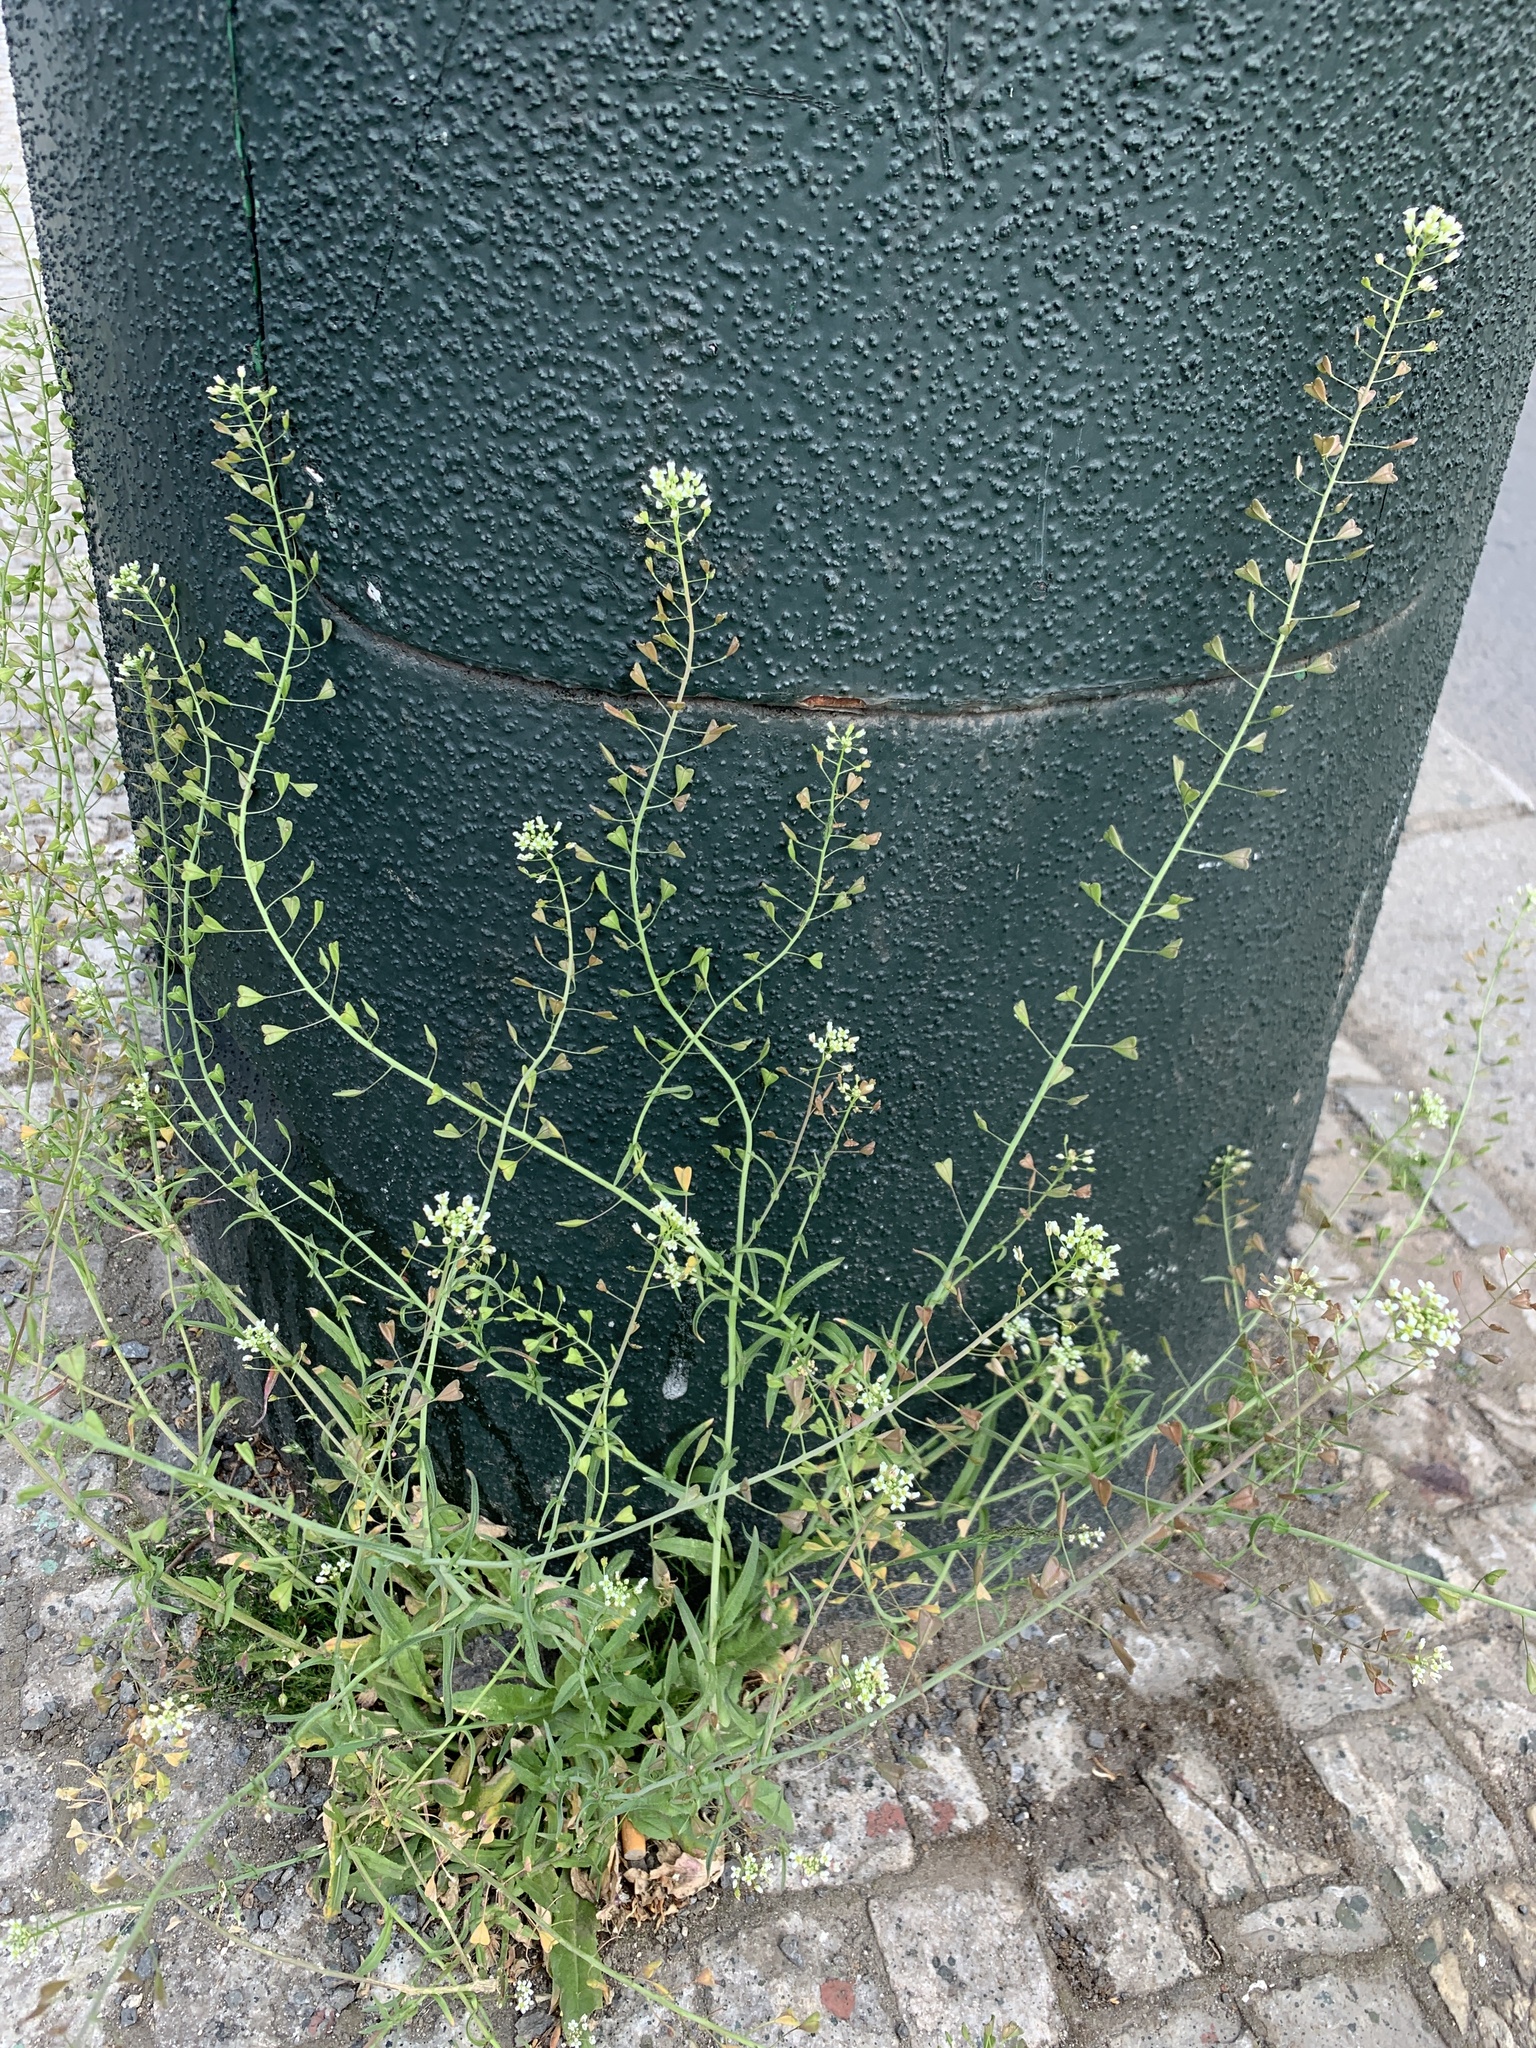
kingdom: Plantae
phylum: Tracheophyta
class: Magnoliopsida
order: Brassicales
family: Brassicaceae
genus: Capsella
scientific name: Capsella bursa-pastoris
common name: Shepherd's purse
